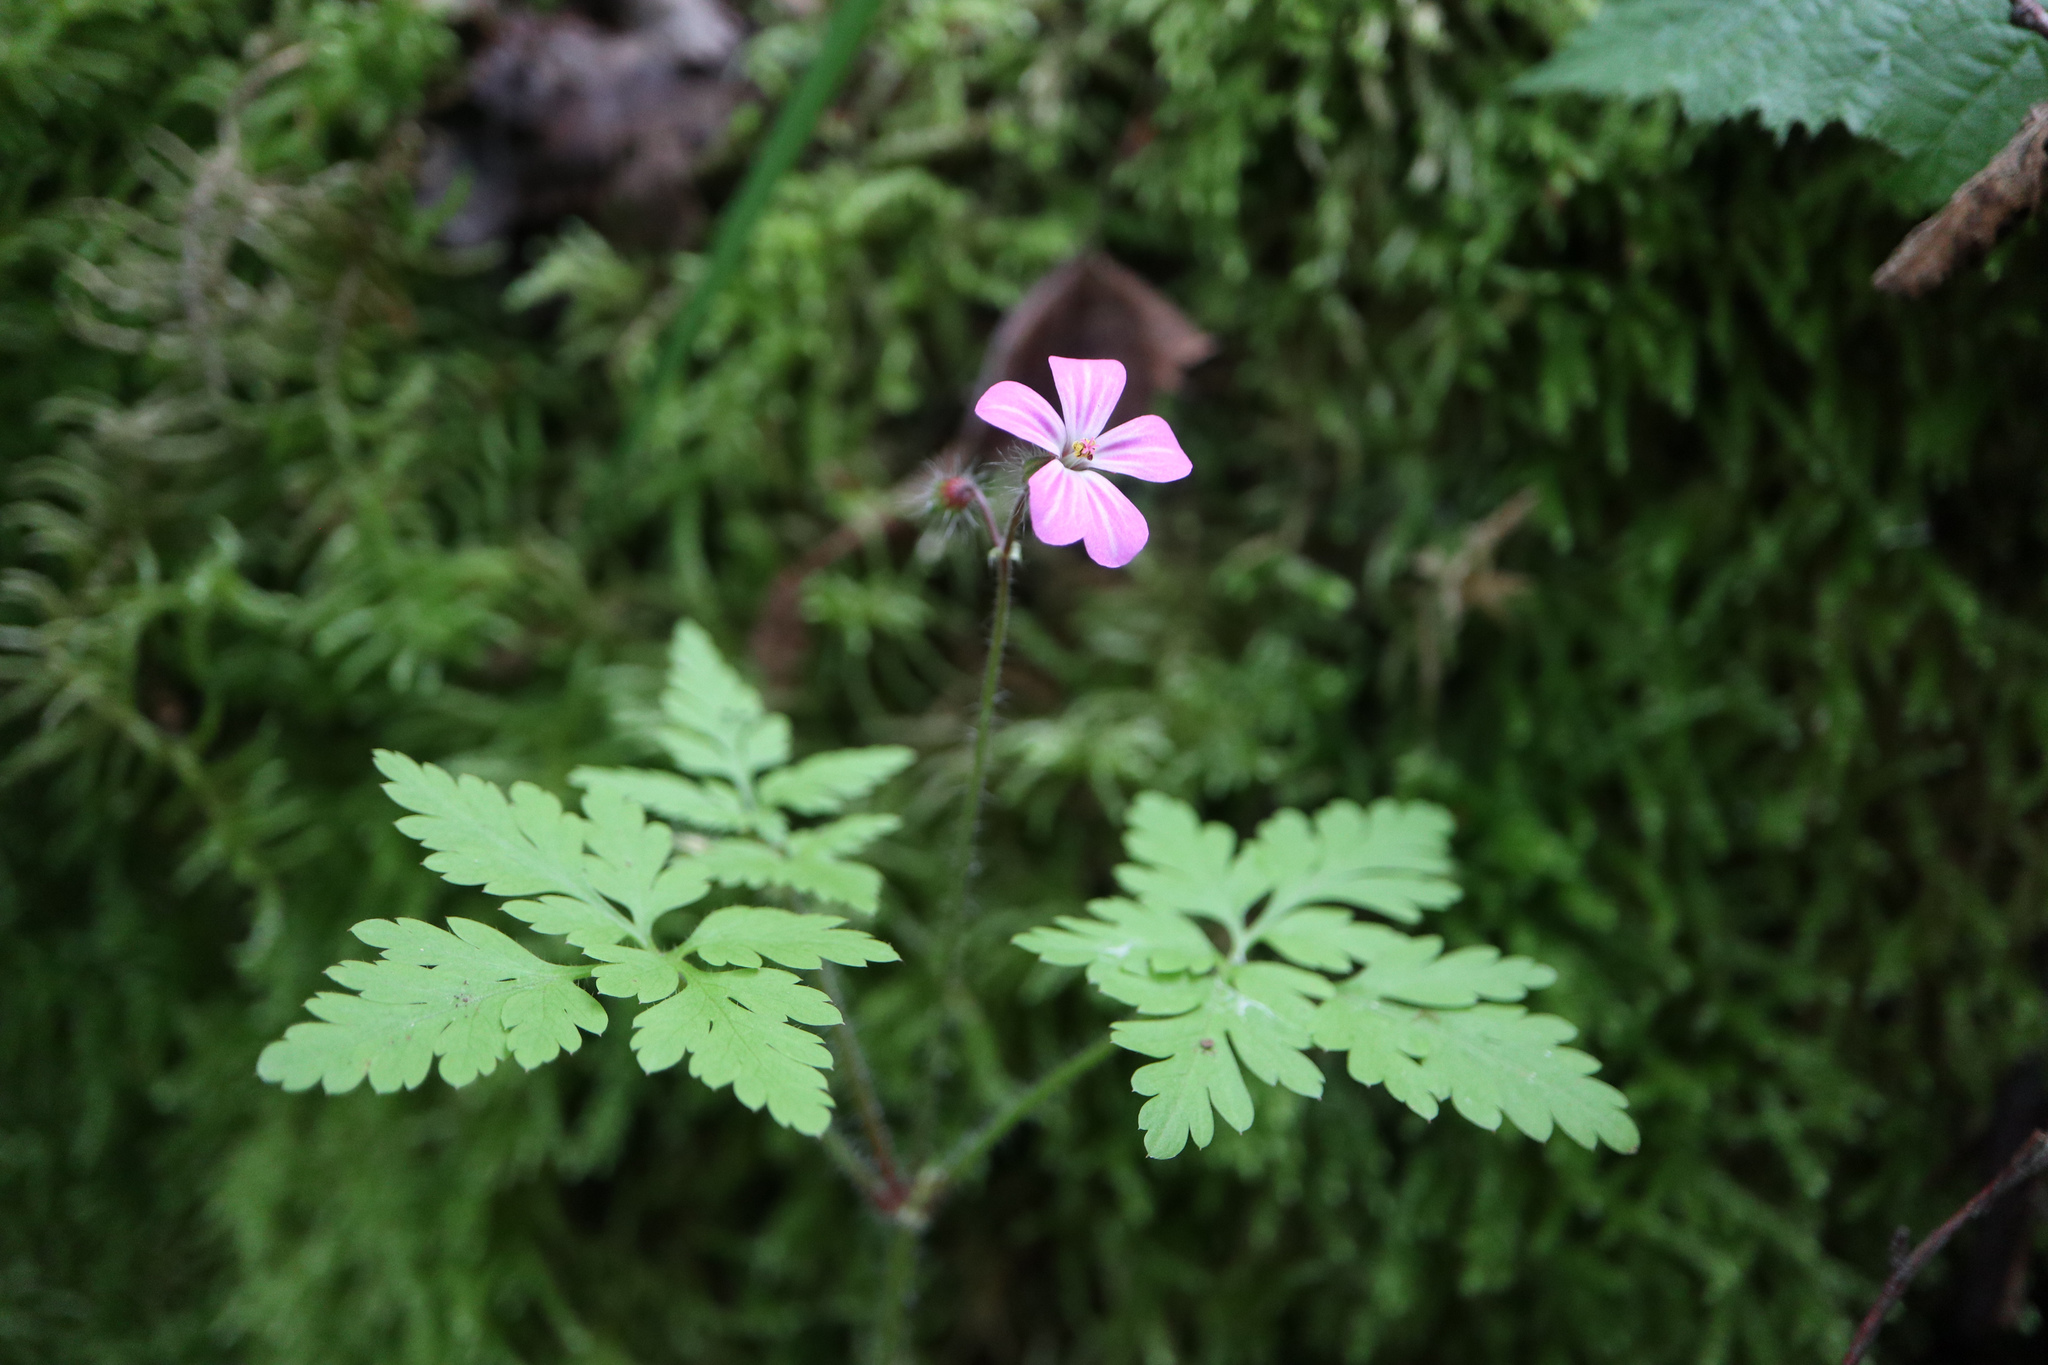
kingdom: Plantae
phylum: Tracheophyta
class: Magnoliopsida
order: Geraniales
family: Geraniaceae
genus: Geranium
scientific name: Geranium robertianum
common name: Herb-robert
